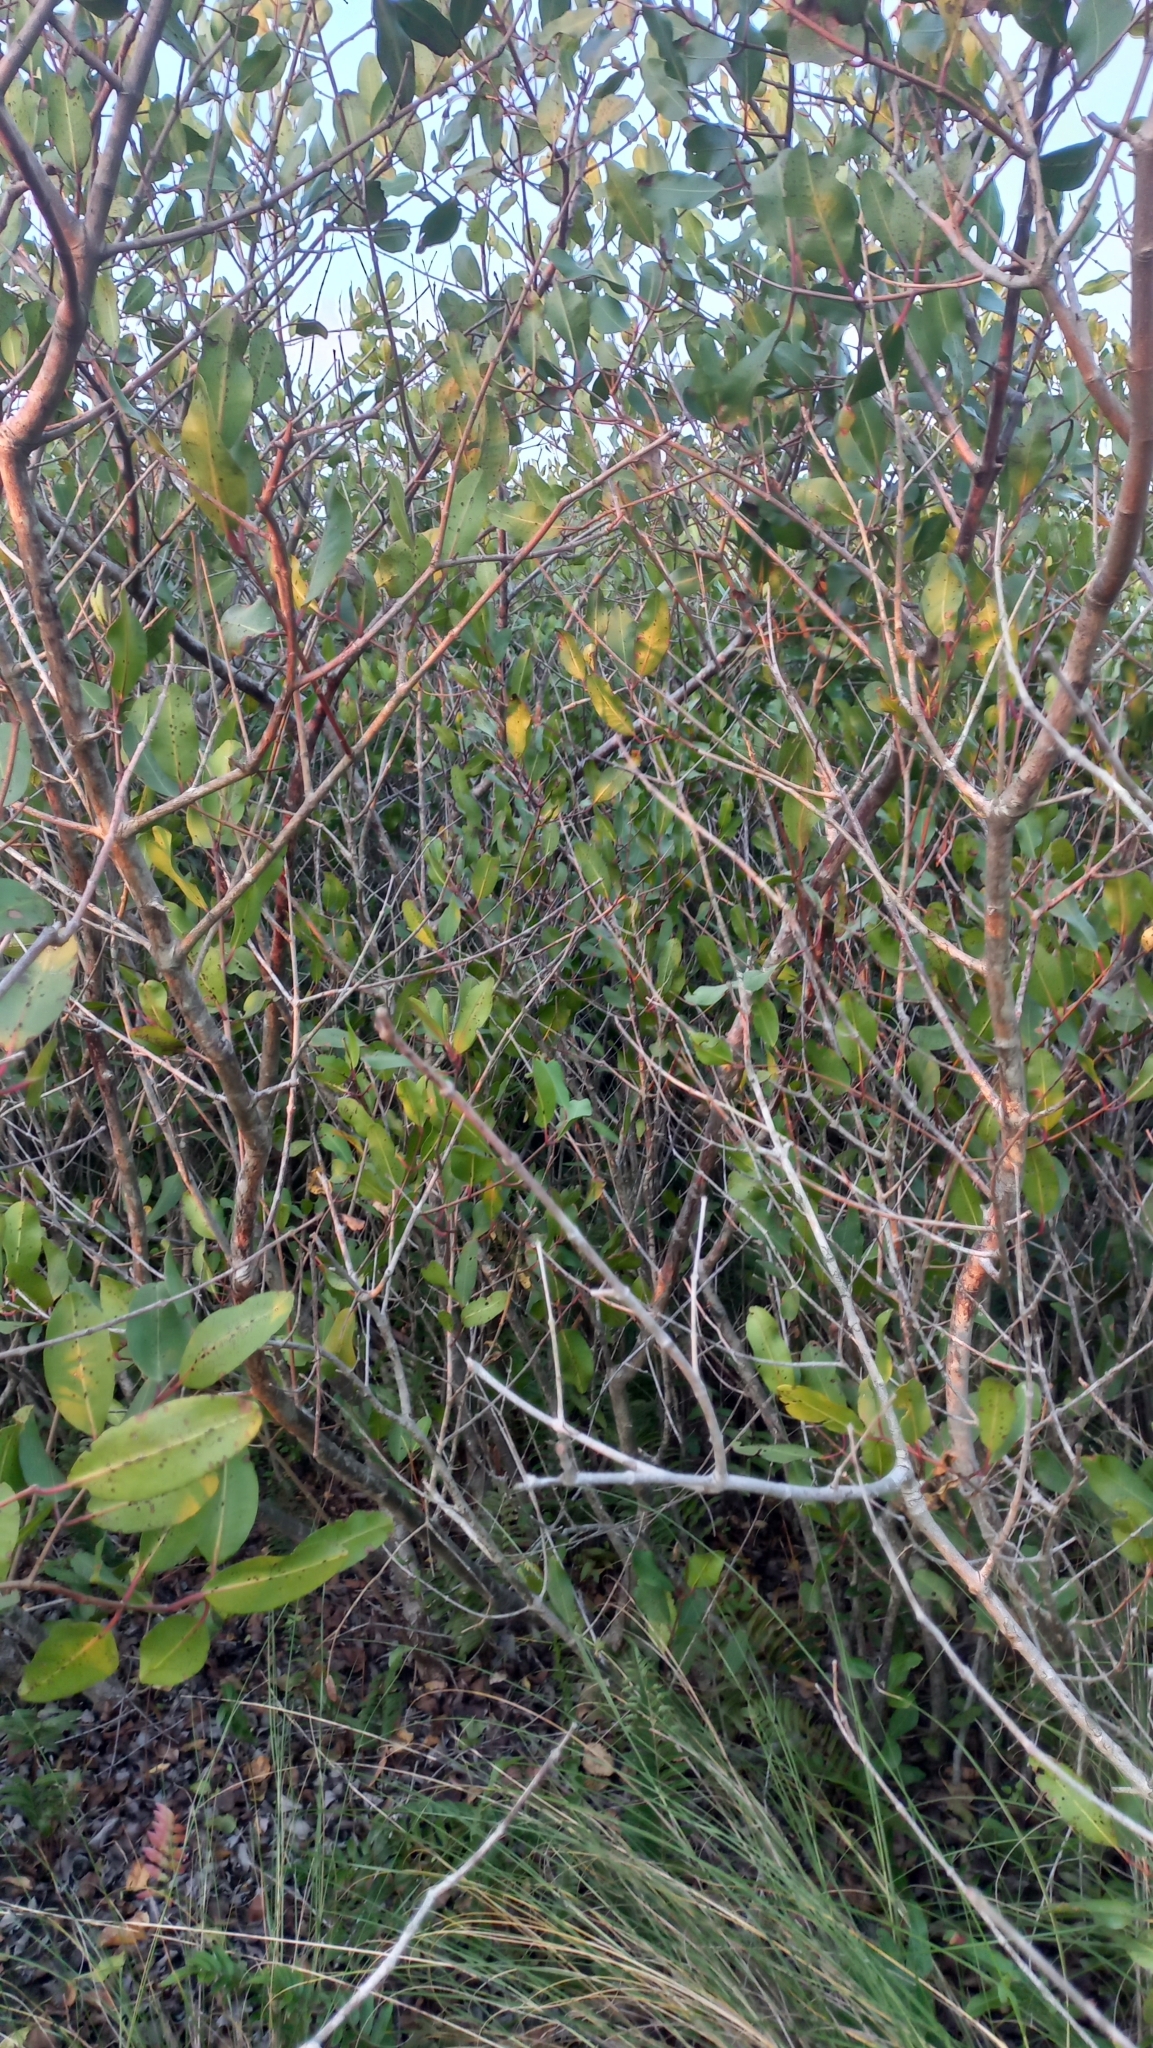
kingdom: Plantae
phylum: Tracheophyta
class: Magnoliopsida
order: Myrtales
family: Combretaceae
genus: Laguncularia
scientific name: Laguncularia racemosa
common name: White mangrove
